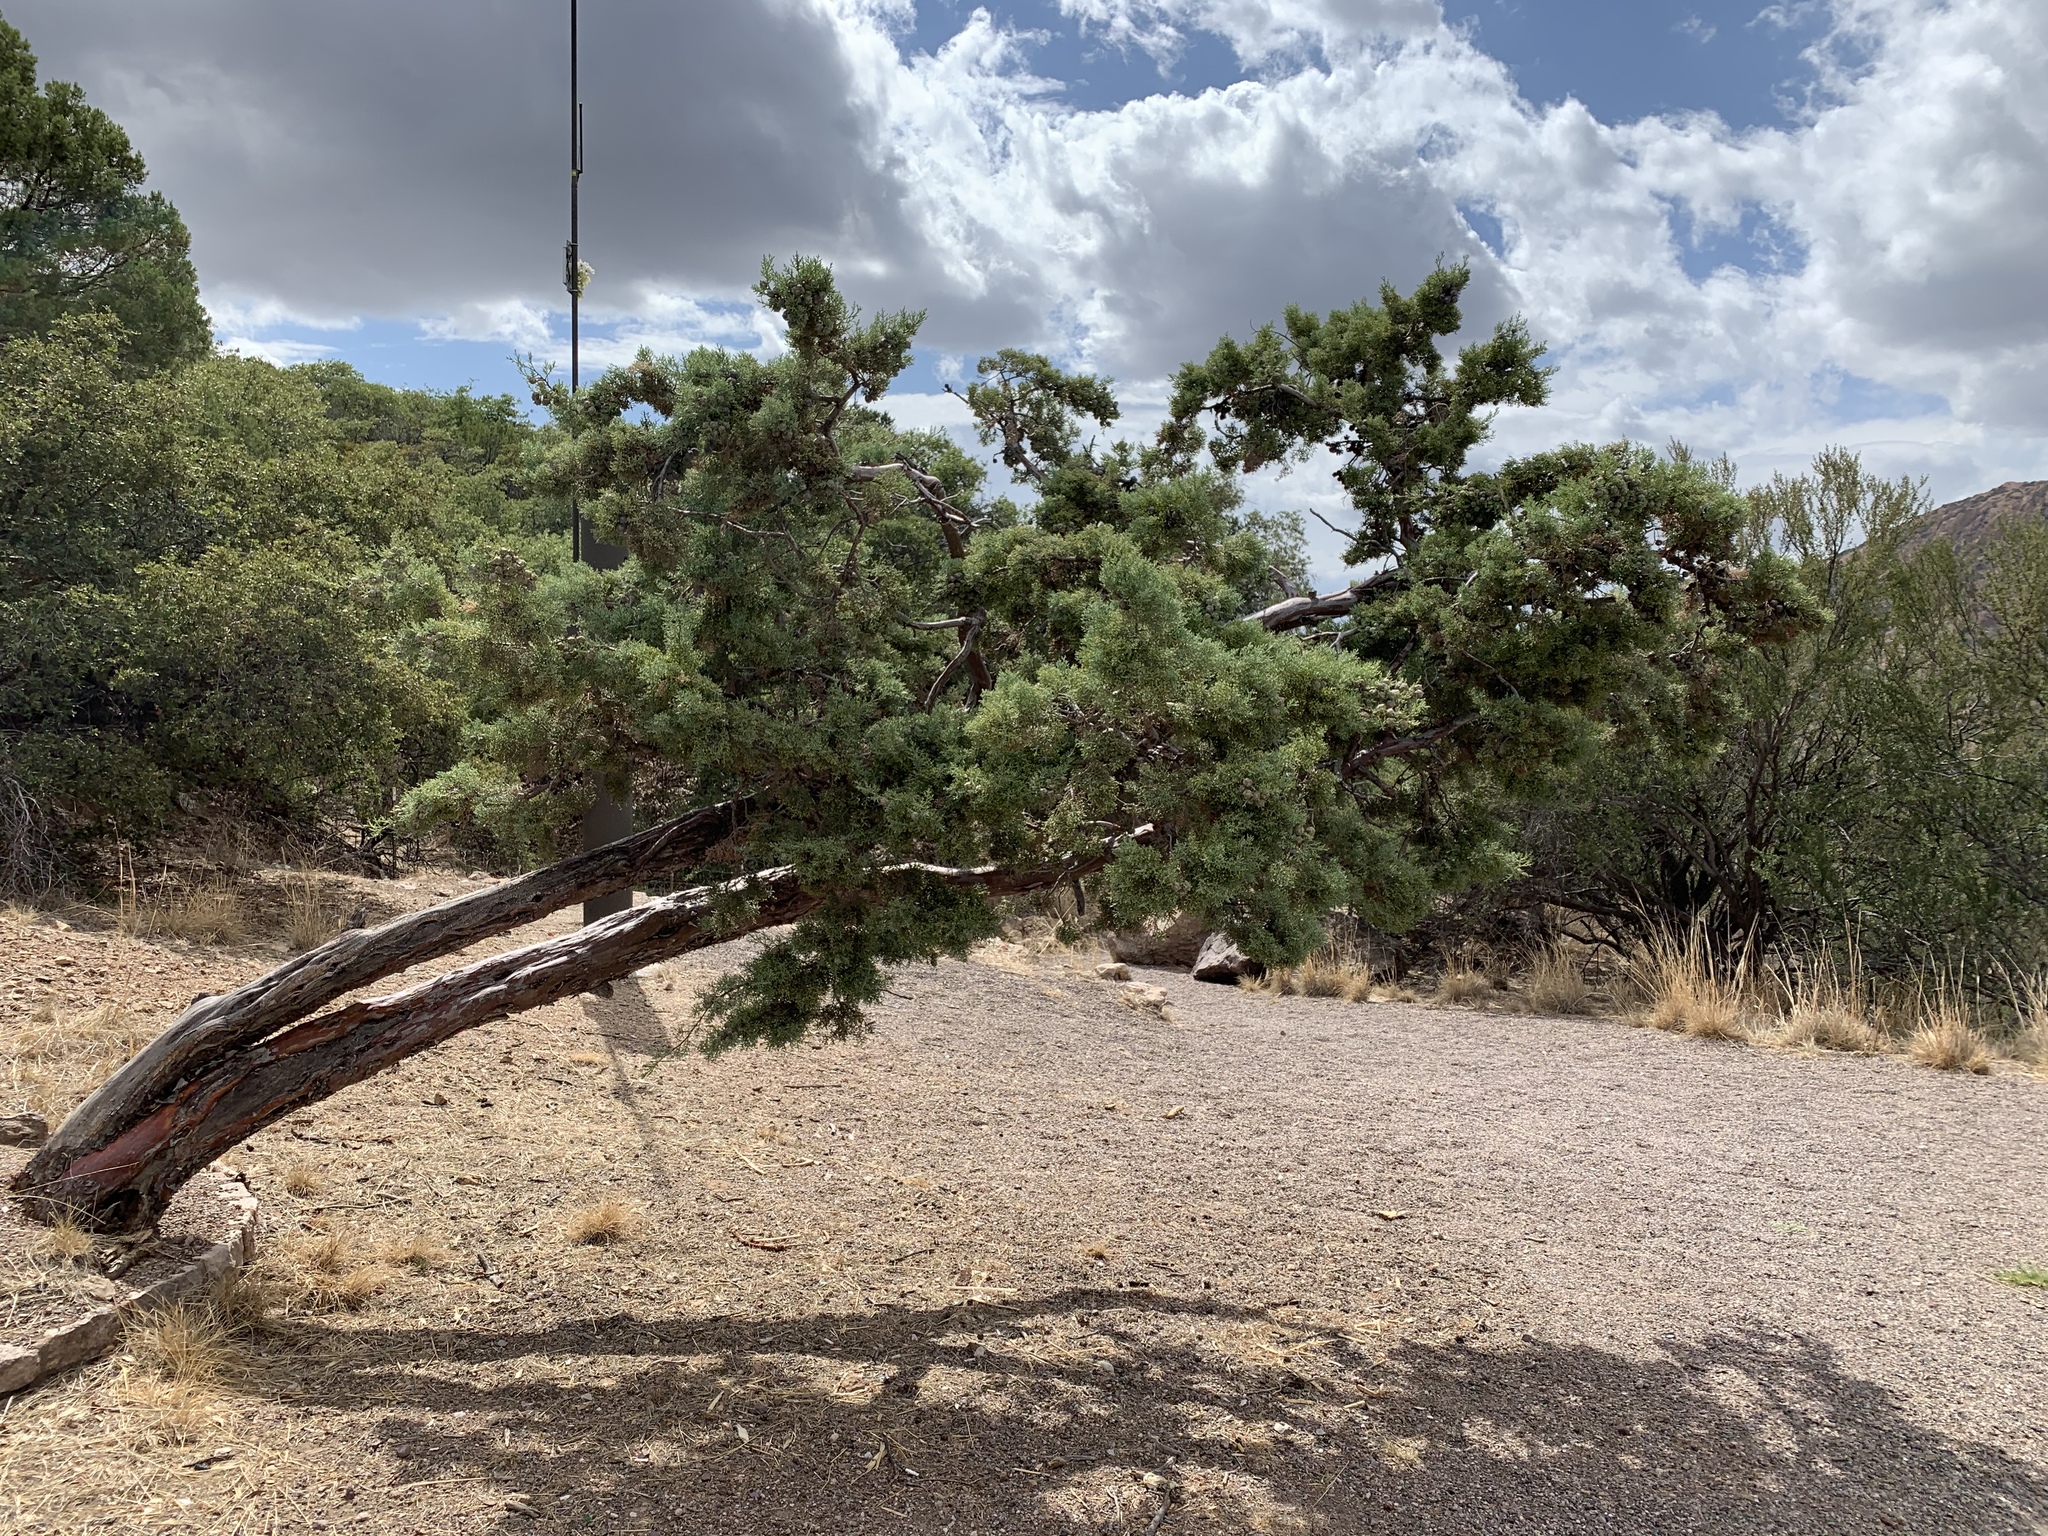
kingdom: Plantae
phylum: Tracheophyta
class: Pinopsida
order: Pinales
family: Cupressaceae
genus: Cupressus
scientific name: Cupressus arizonica
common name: Arizona cypress
